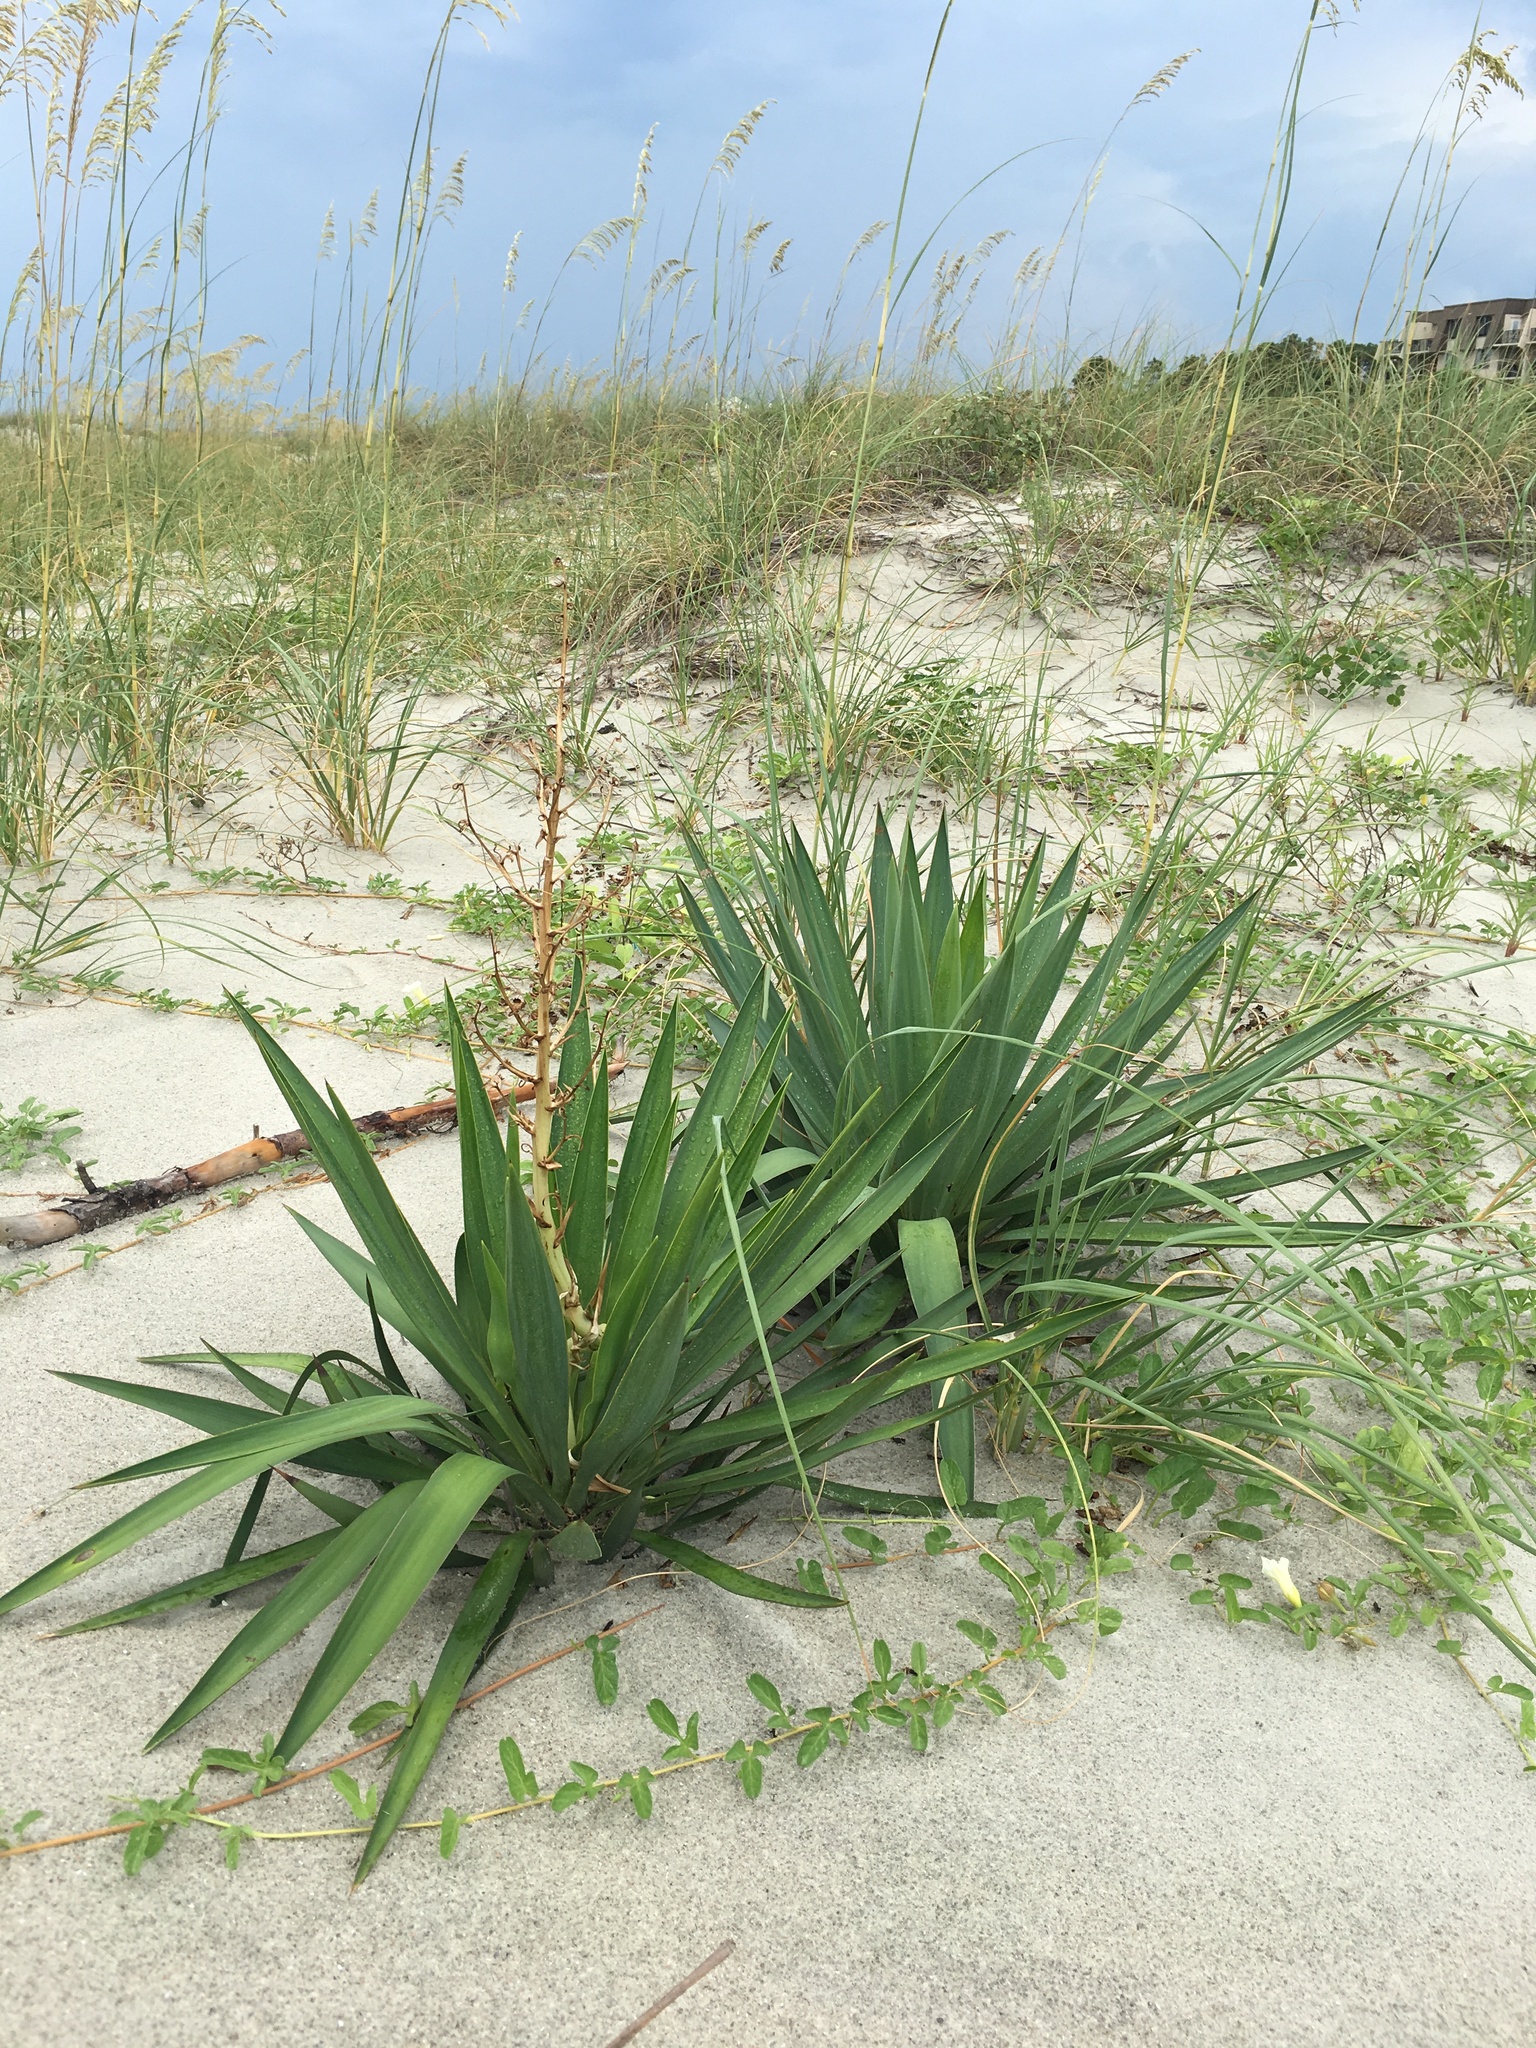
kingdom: Plantae
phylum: Tracheophyta
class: Liliopsida
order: Asparagales
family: Asparagaceae
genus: Yucca
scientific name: Yucca gloriosa
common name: Spanish-dagger
